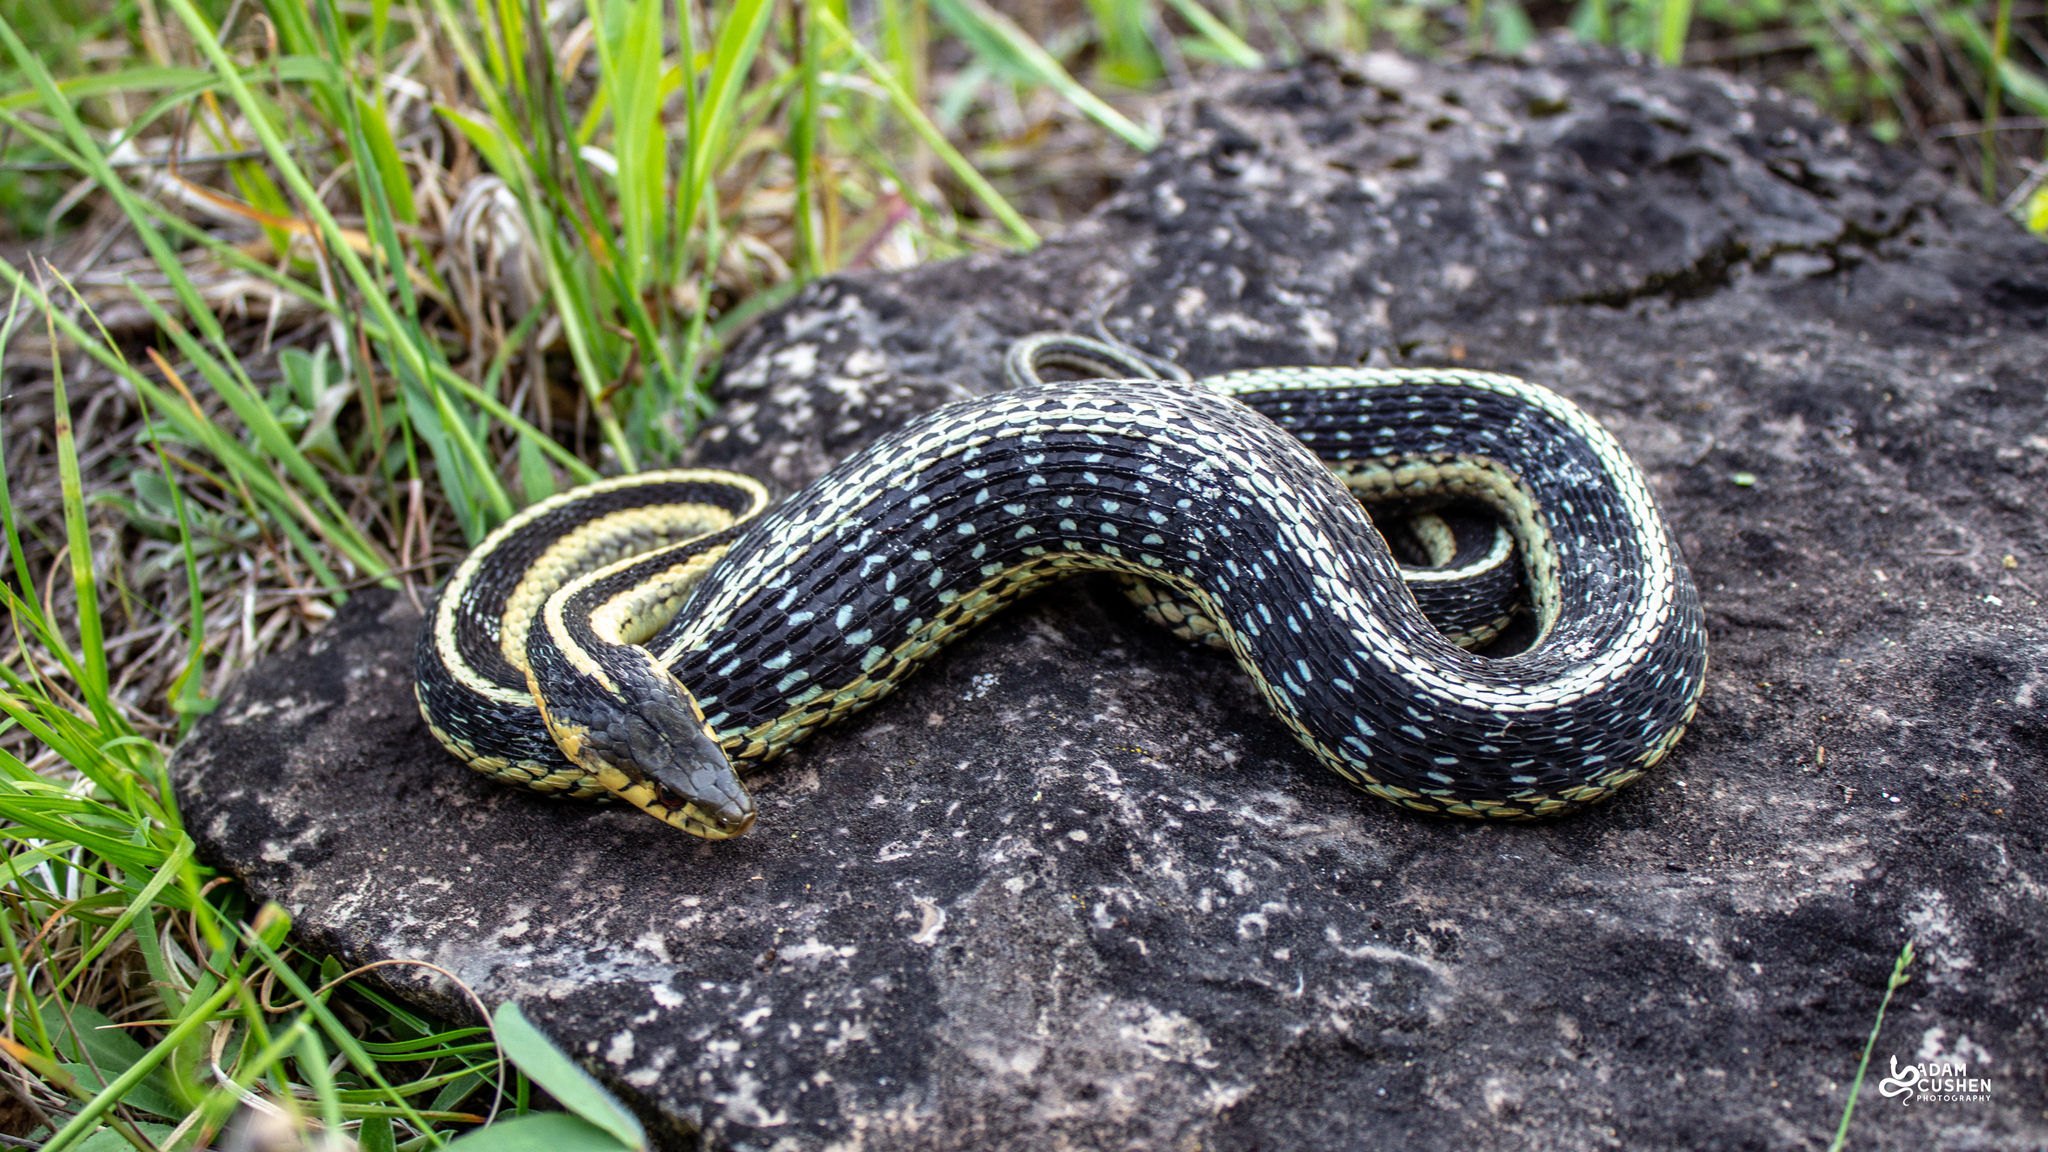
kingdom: Animalia
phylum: Chordata
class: Squamata
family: Colubridae
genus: Thamnophis
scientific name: Thamnophis sirtalis
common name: Common garter snake
